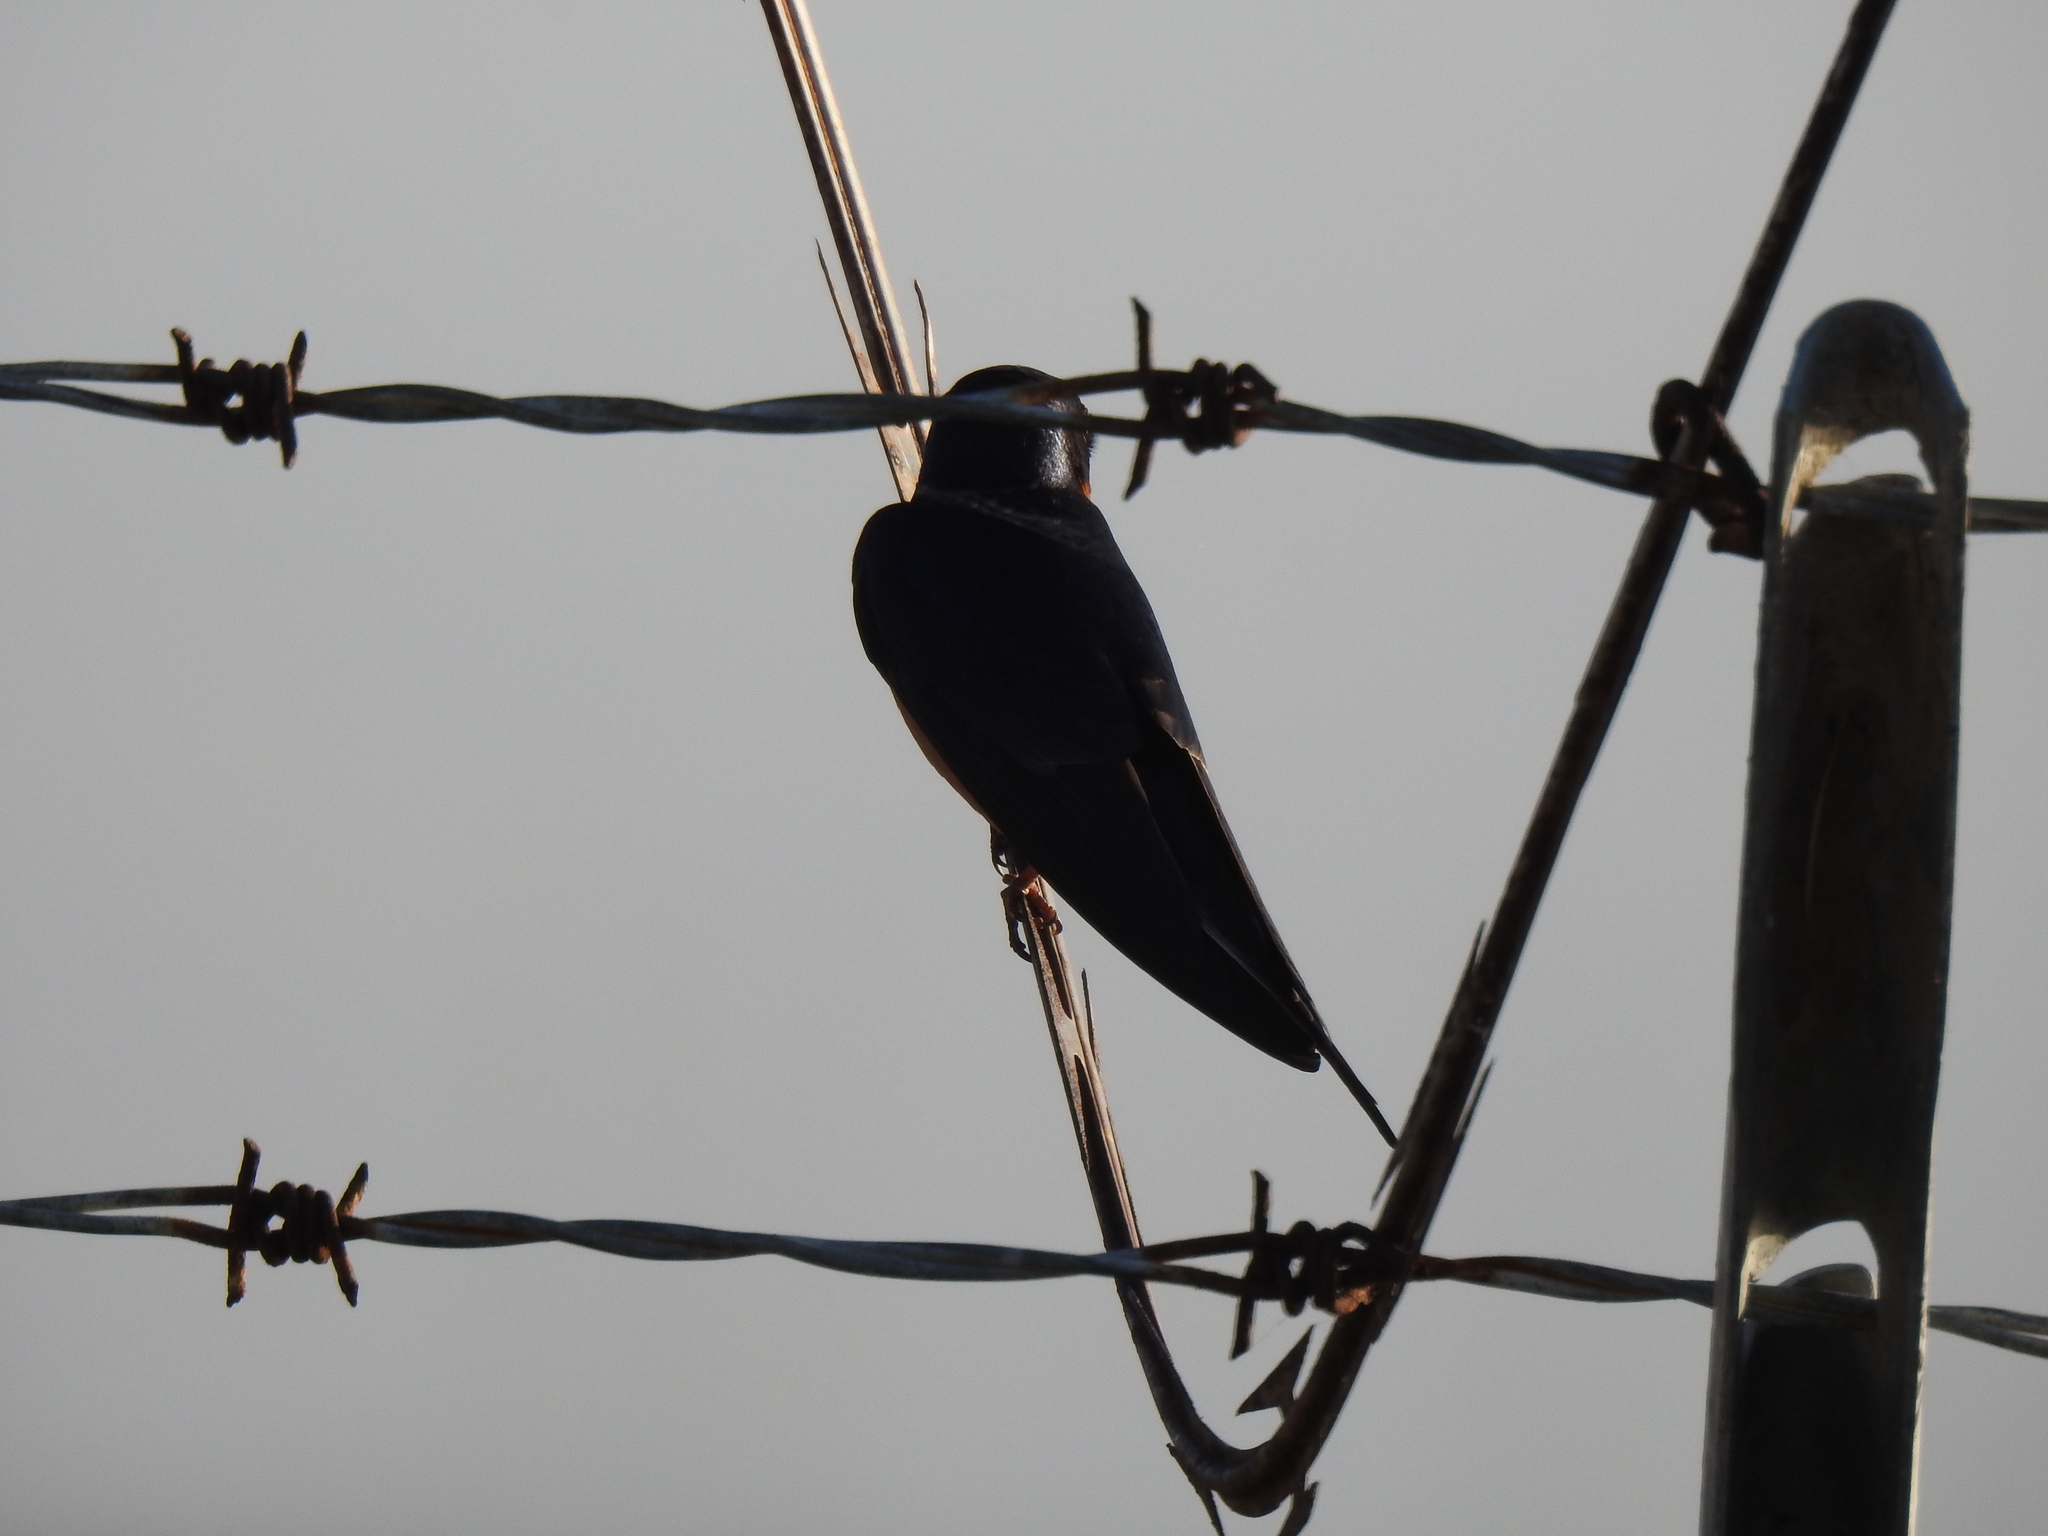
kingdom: Animalia
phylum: Chordata
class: Aves
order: Passeriformes
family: Hirundinidae
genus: Hirundo
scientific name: Hirundo rustica
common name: Barn swallow
